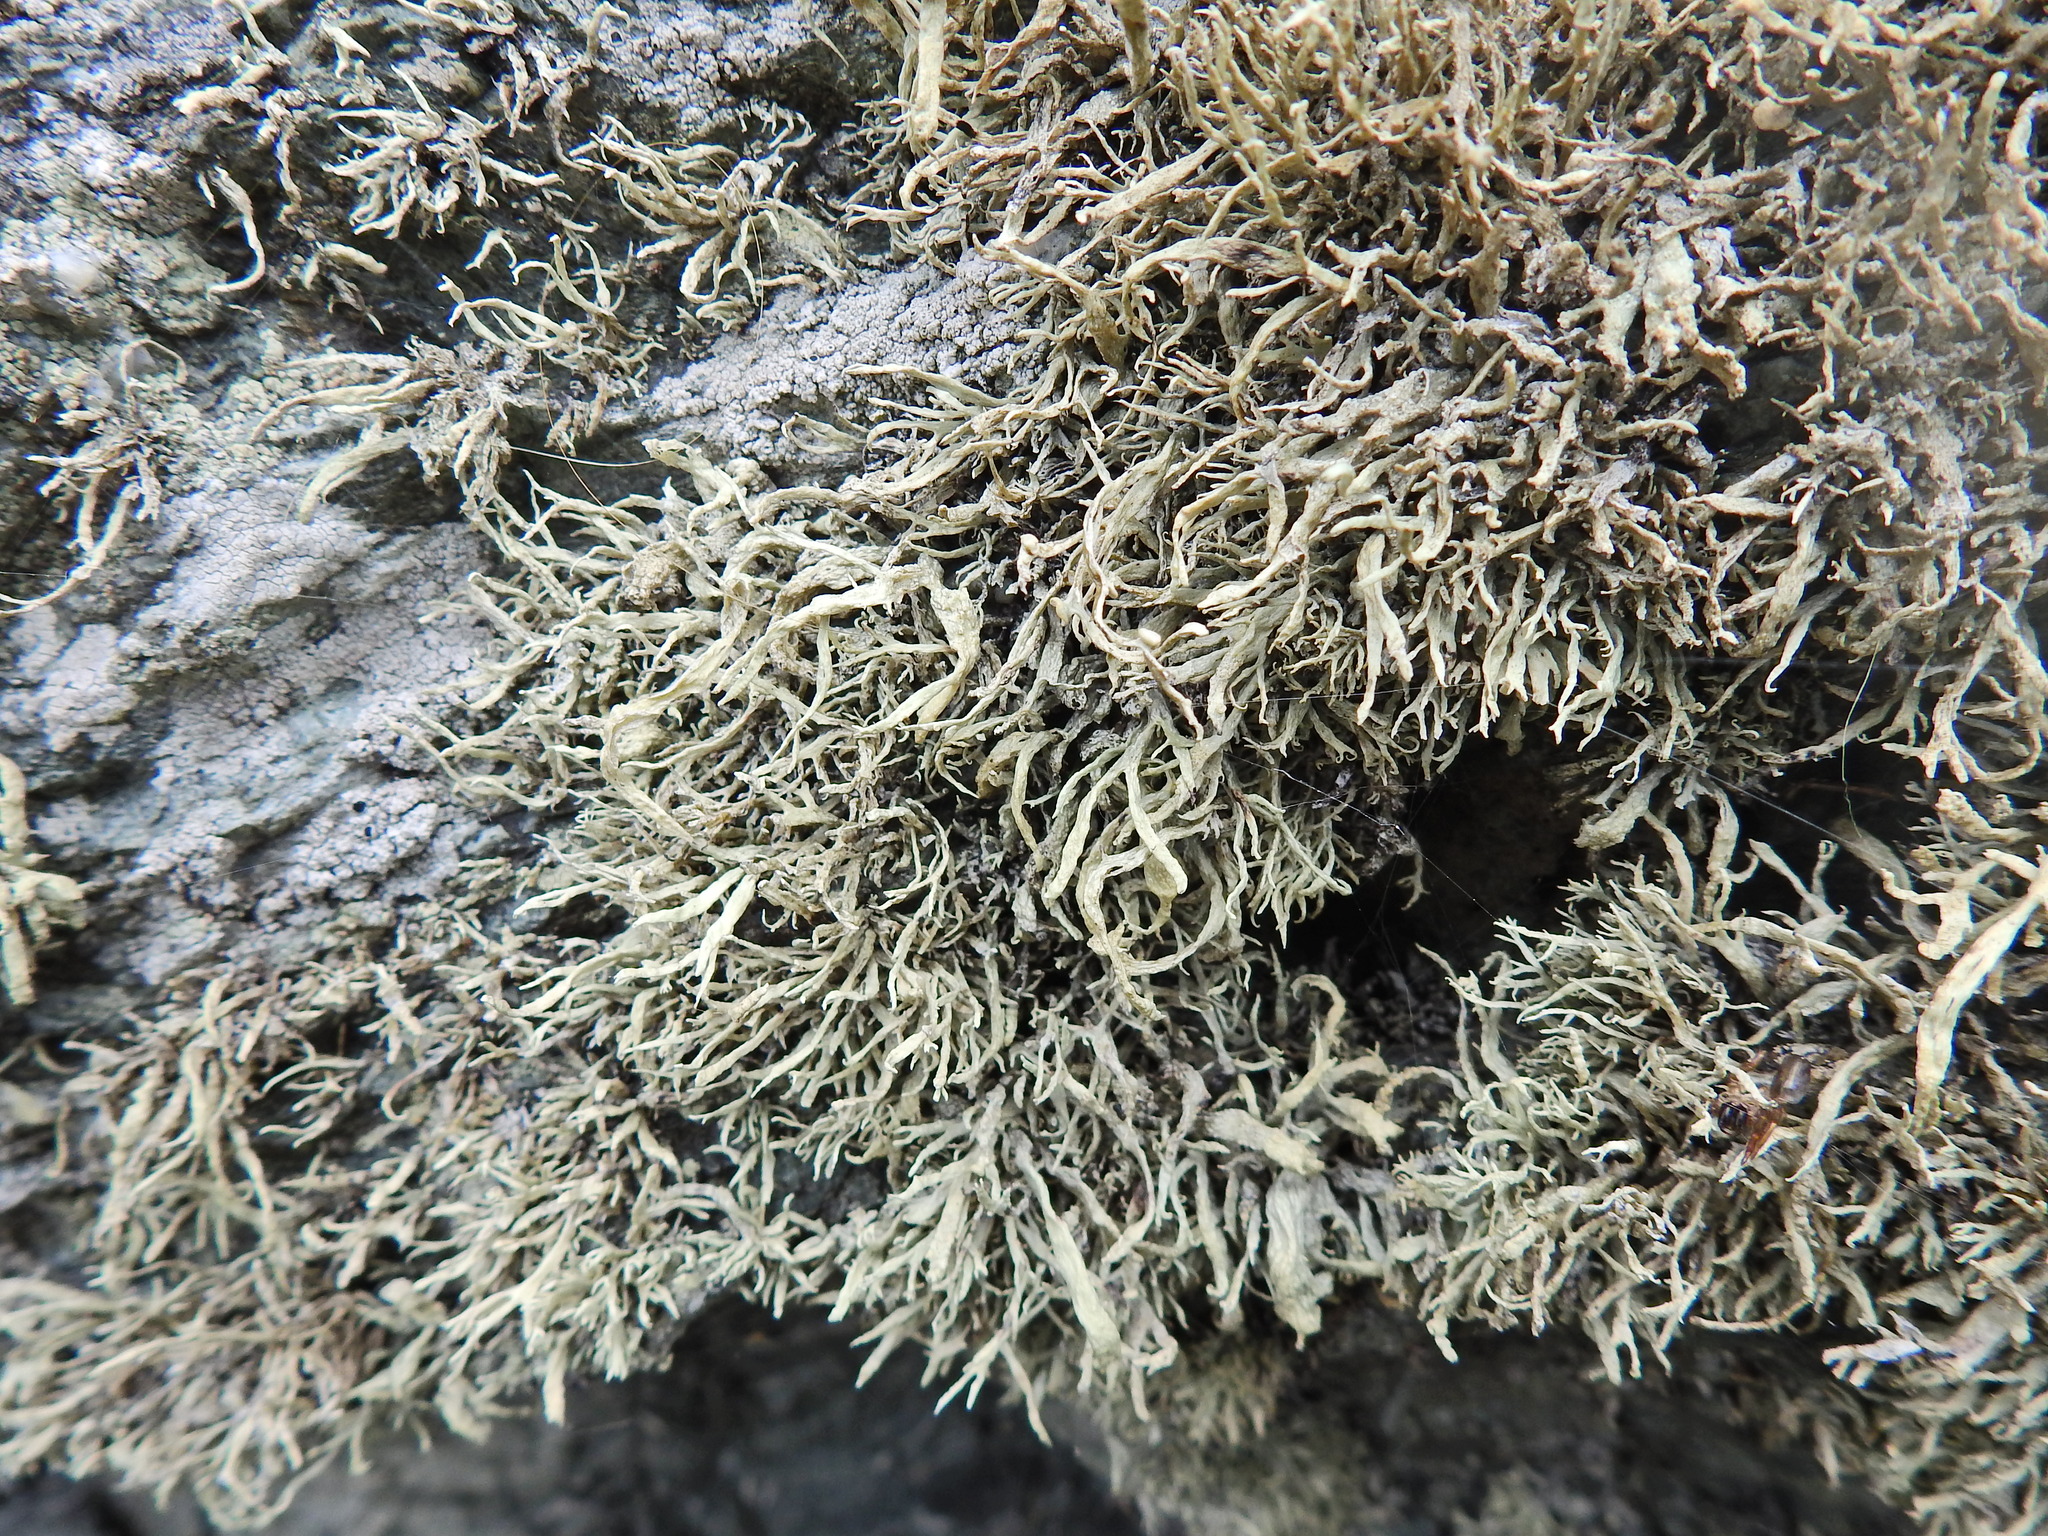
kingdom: Fungi
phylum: Ascomycota
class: Lecanoromycetes
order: Lecanorales
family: Ramalinaceae
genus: Ramalina
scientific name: Ramalina siliquosa
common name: Sea ivory
